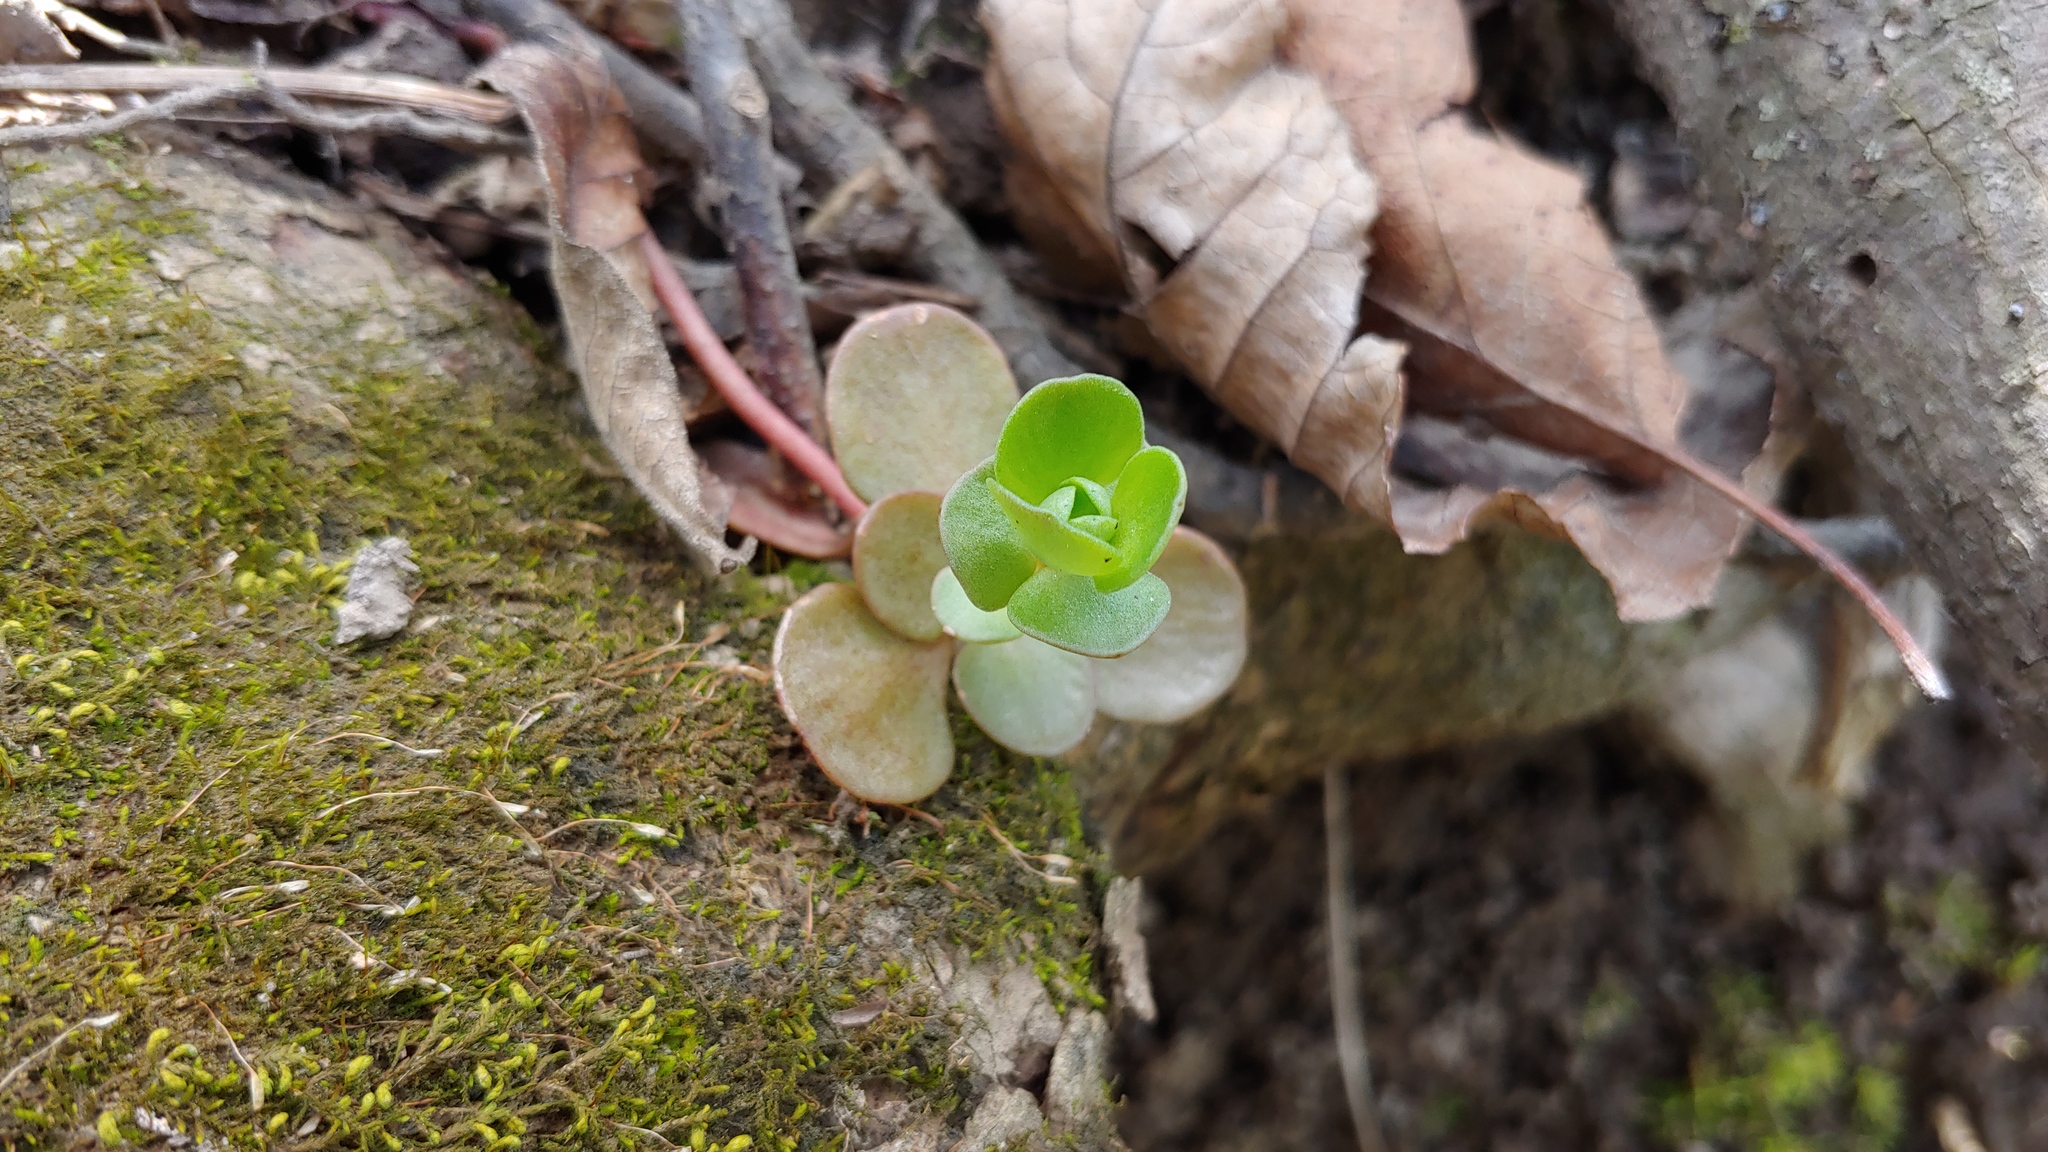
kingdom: Plantae
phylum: Tracheophyta
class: Magnoliopsida
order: Saxifragales
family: Crassulaceae
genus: Sedum
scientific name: Sedum ternatum
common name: Wild stonecrop
